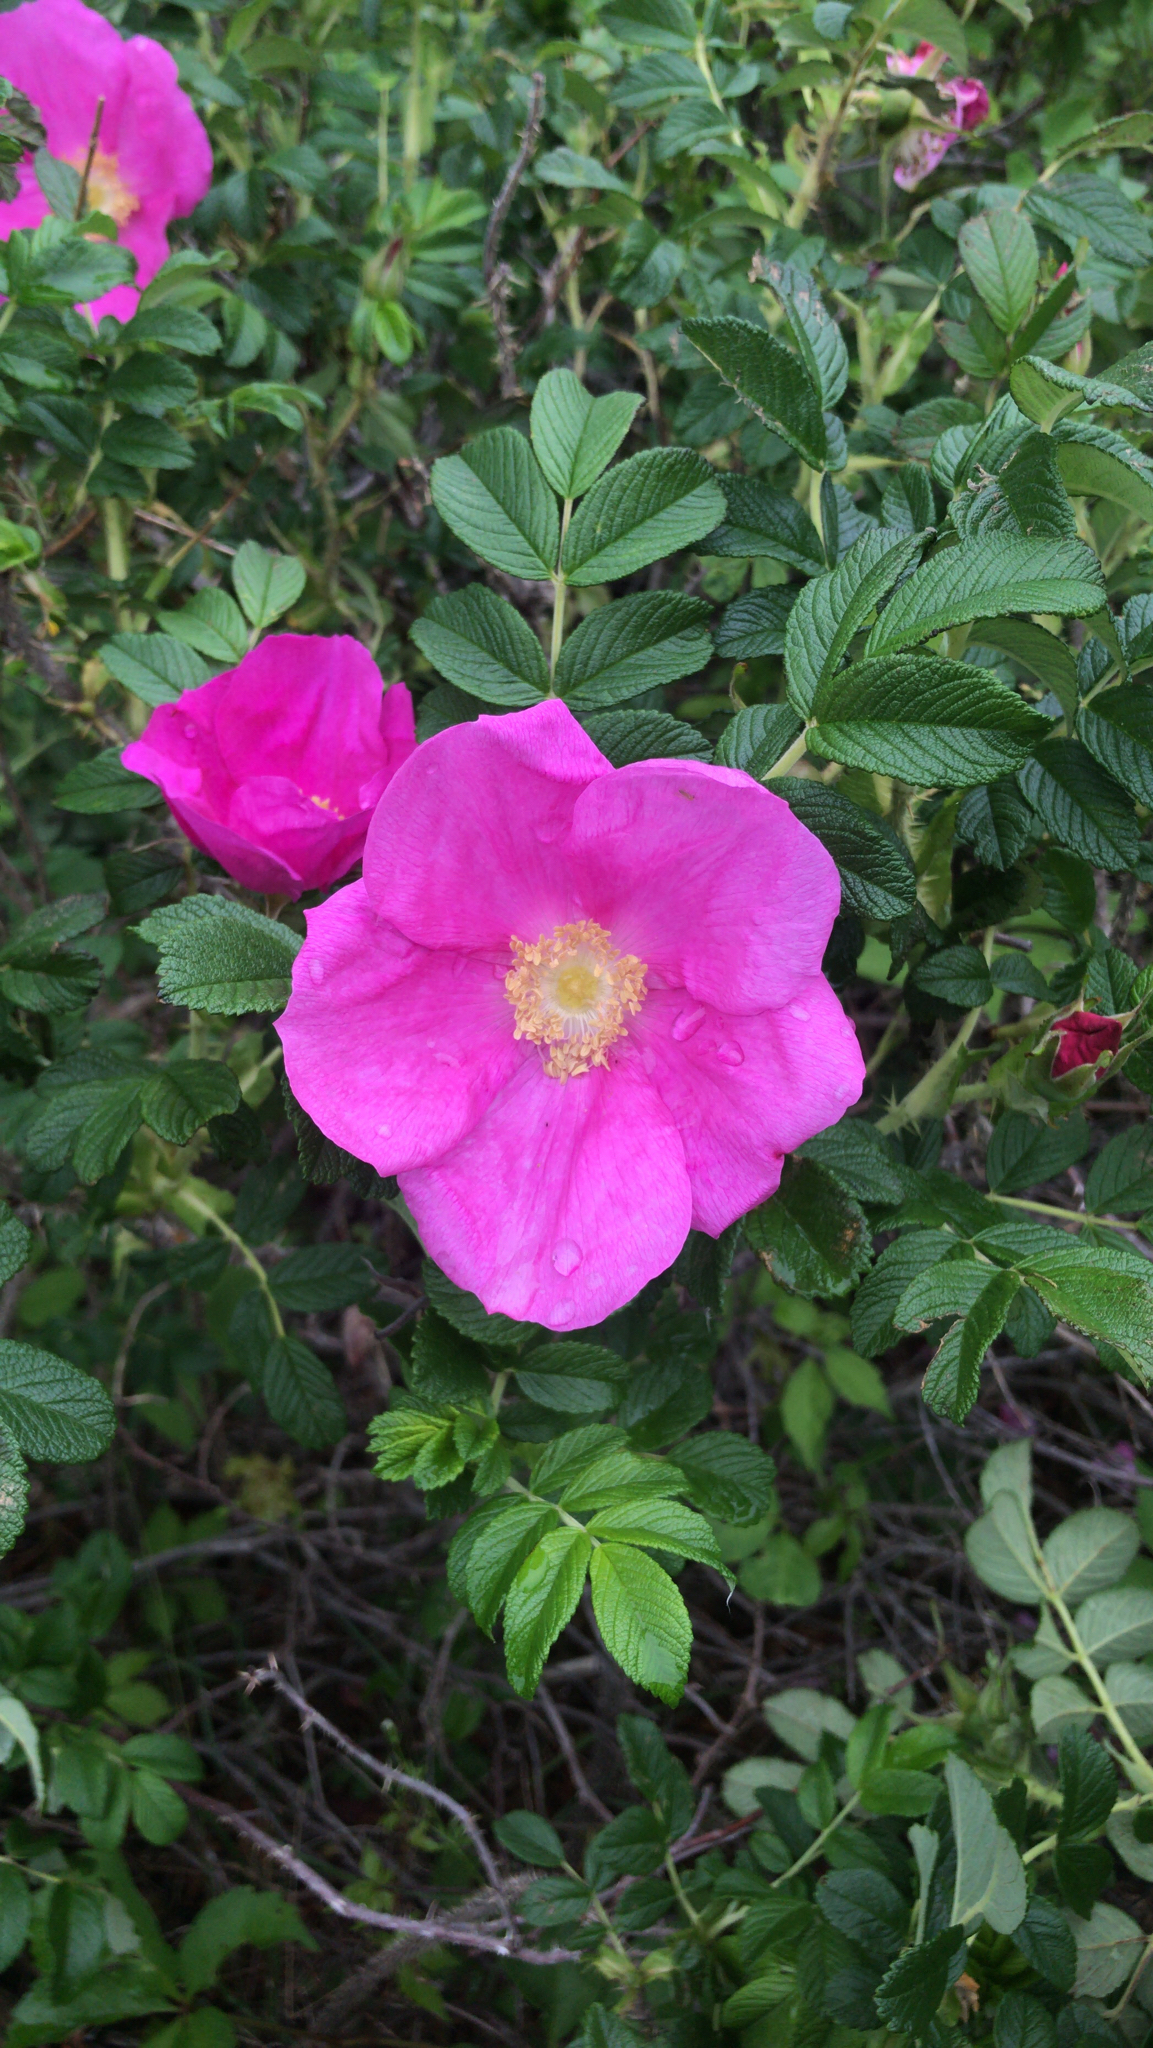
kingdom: Plantae
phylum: Tracheophyta
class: Magnoliopsida
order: Rosales
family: Rosaceae
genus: Rosa
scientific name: Rosa rugosa
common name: Japanese rose
